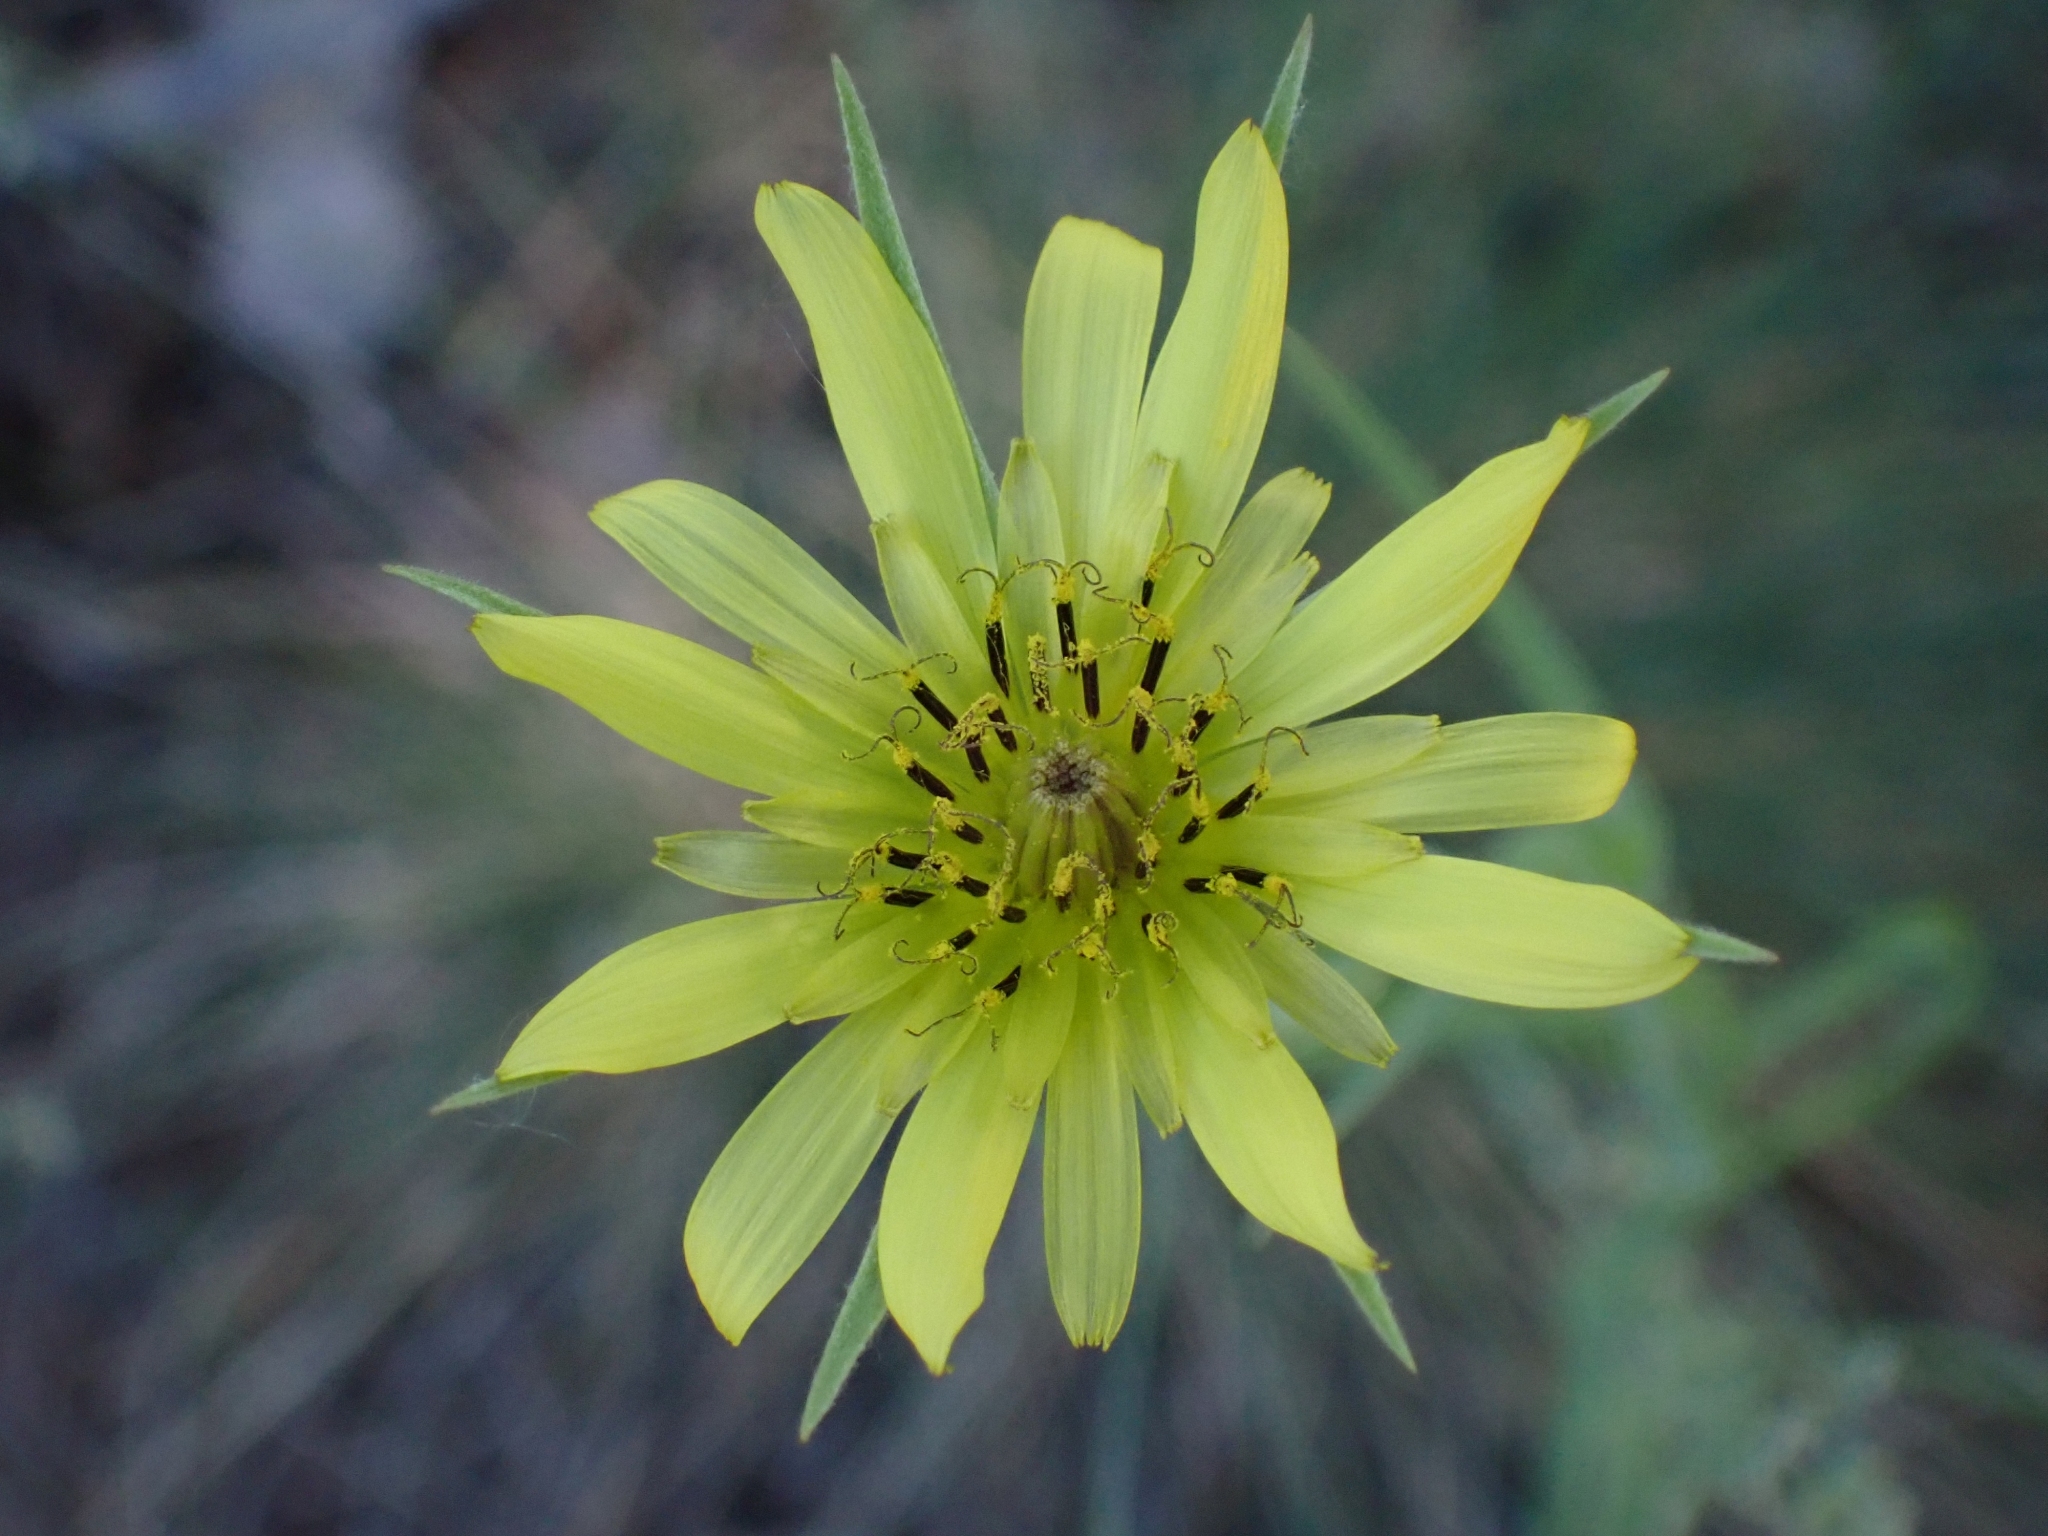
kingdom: Plantae
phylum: Tracheophyta
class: Magnoliopsida
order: Asterales
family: Asteraceae
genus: Tragopogon
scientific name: Tragopogon dubius
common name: Yellow salsify
